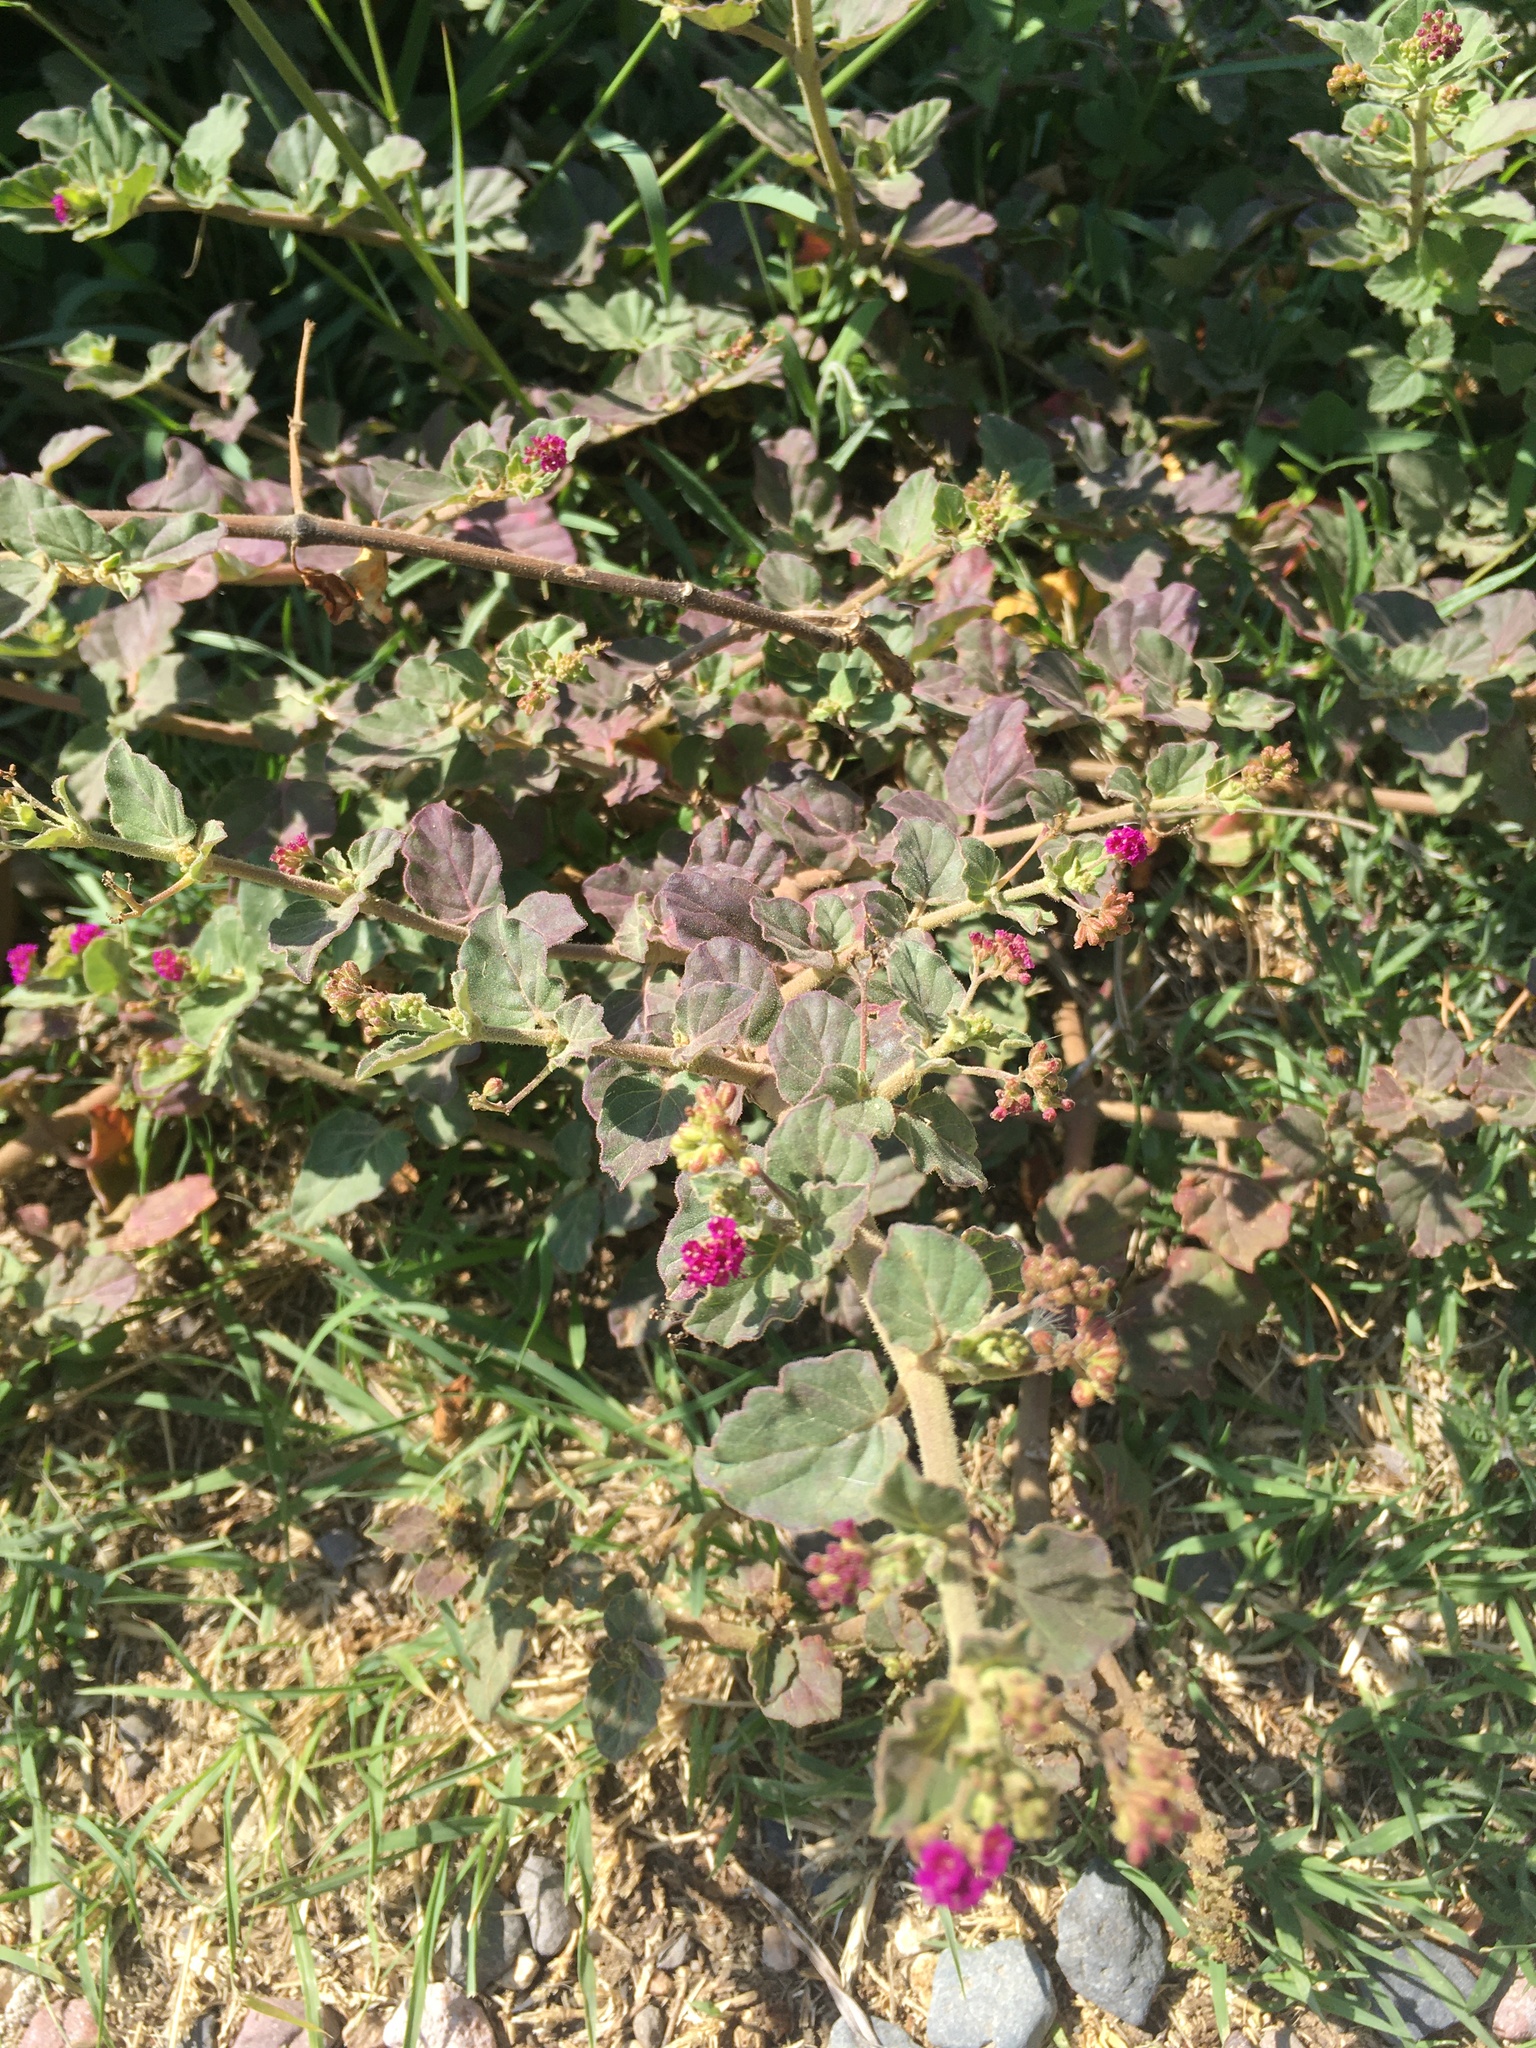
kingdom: Plantae
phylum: Tracheophyta
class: Magnoliopsida
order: Caryophyllales
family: Nyctaginaceae
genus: Boerhavia
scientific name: Boerhavia coccinea
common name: Scarlet spiderling
